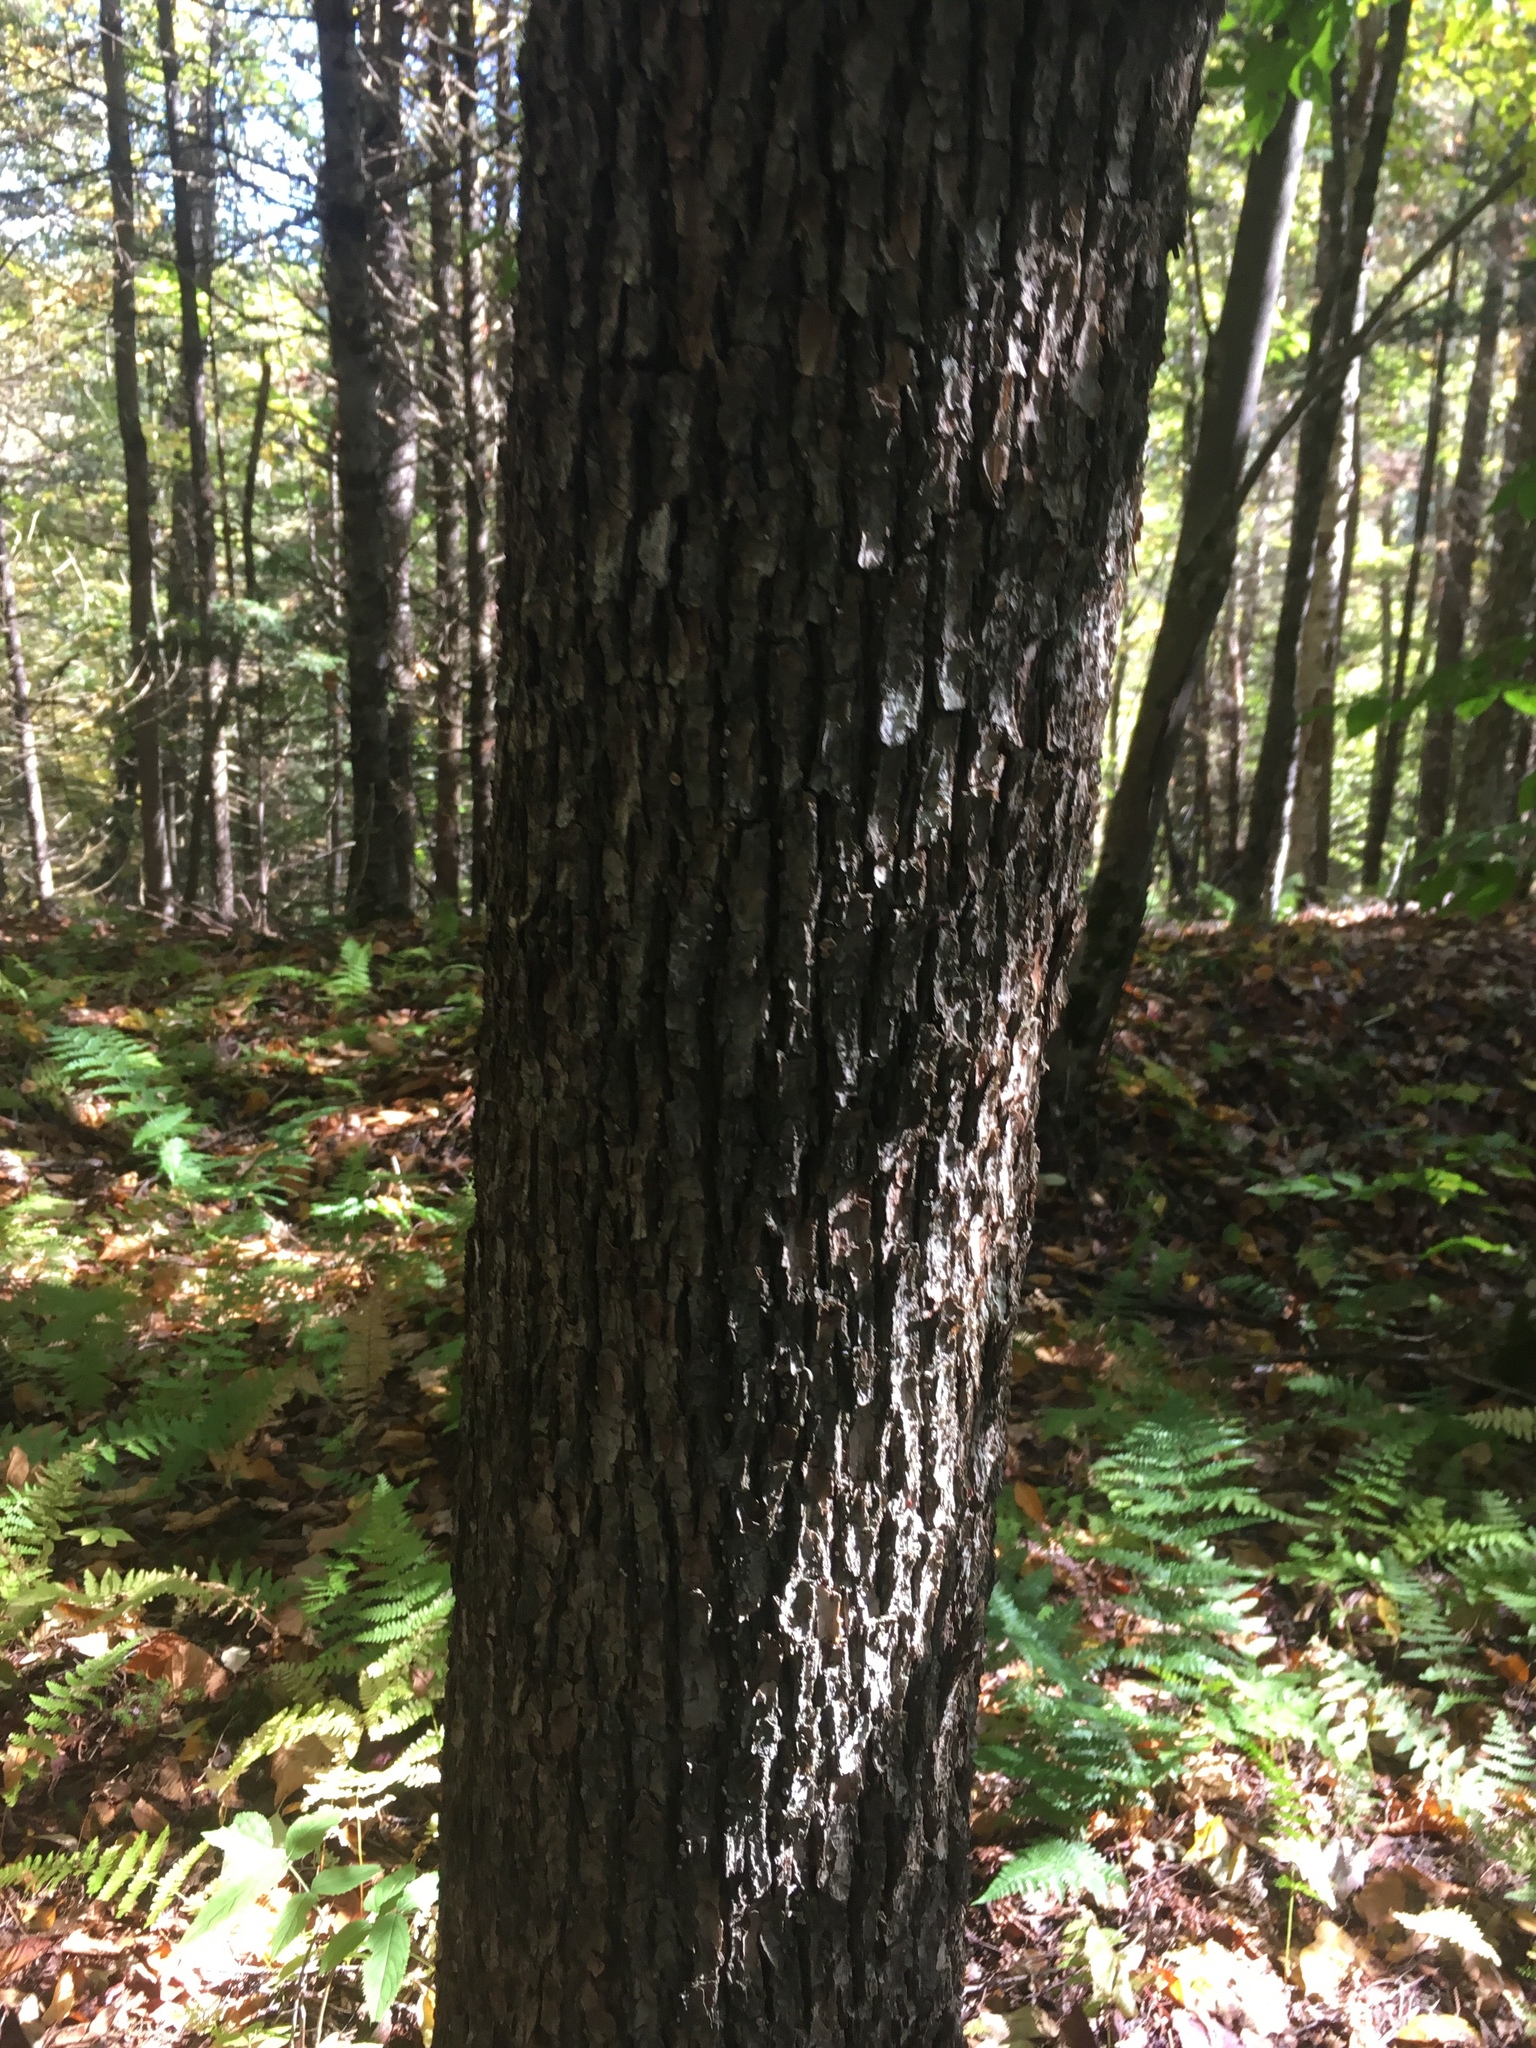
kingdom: Plantae
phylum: Tracheophyta
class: Magnoliopsida
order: Fagales
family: Betulaceae
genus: Ostrya
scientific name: Ostrya virginiana
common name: Ironwood
